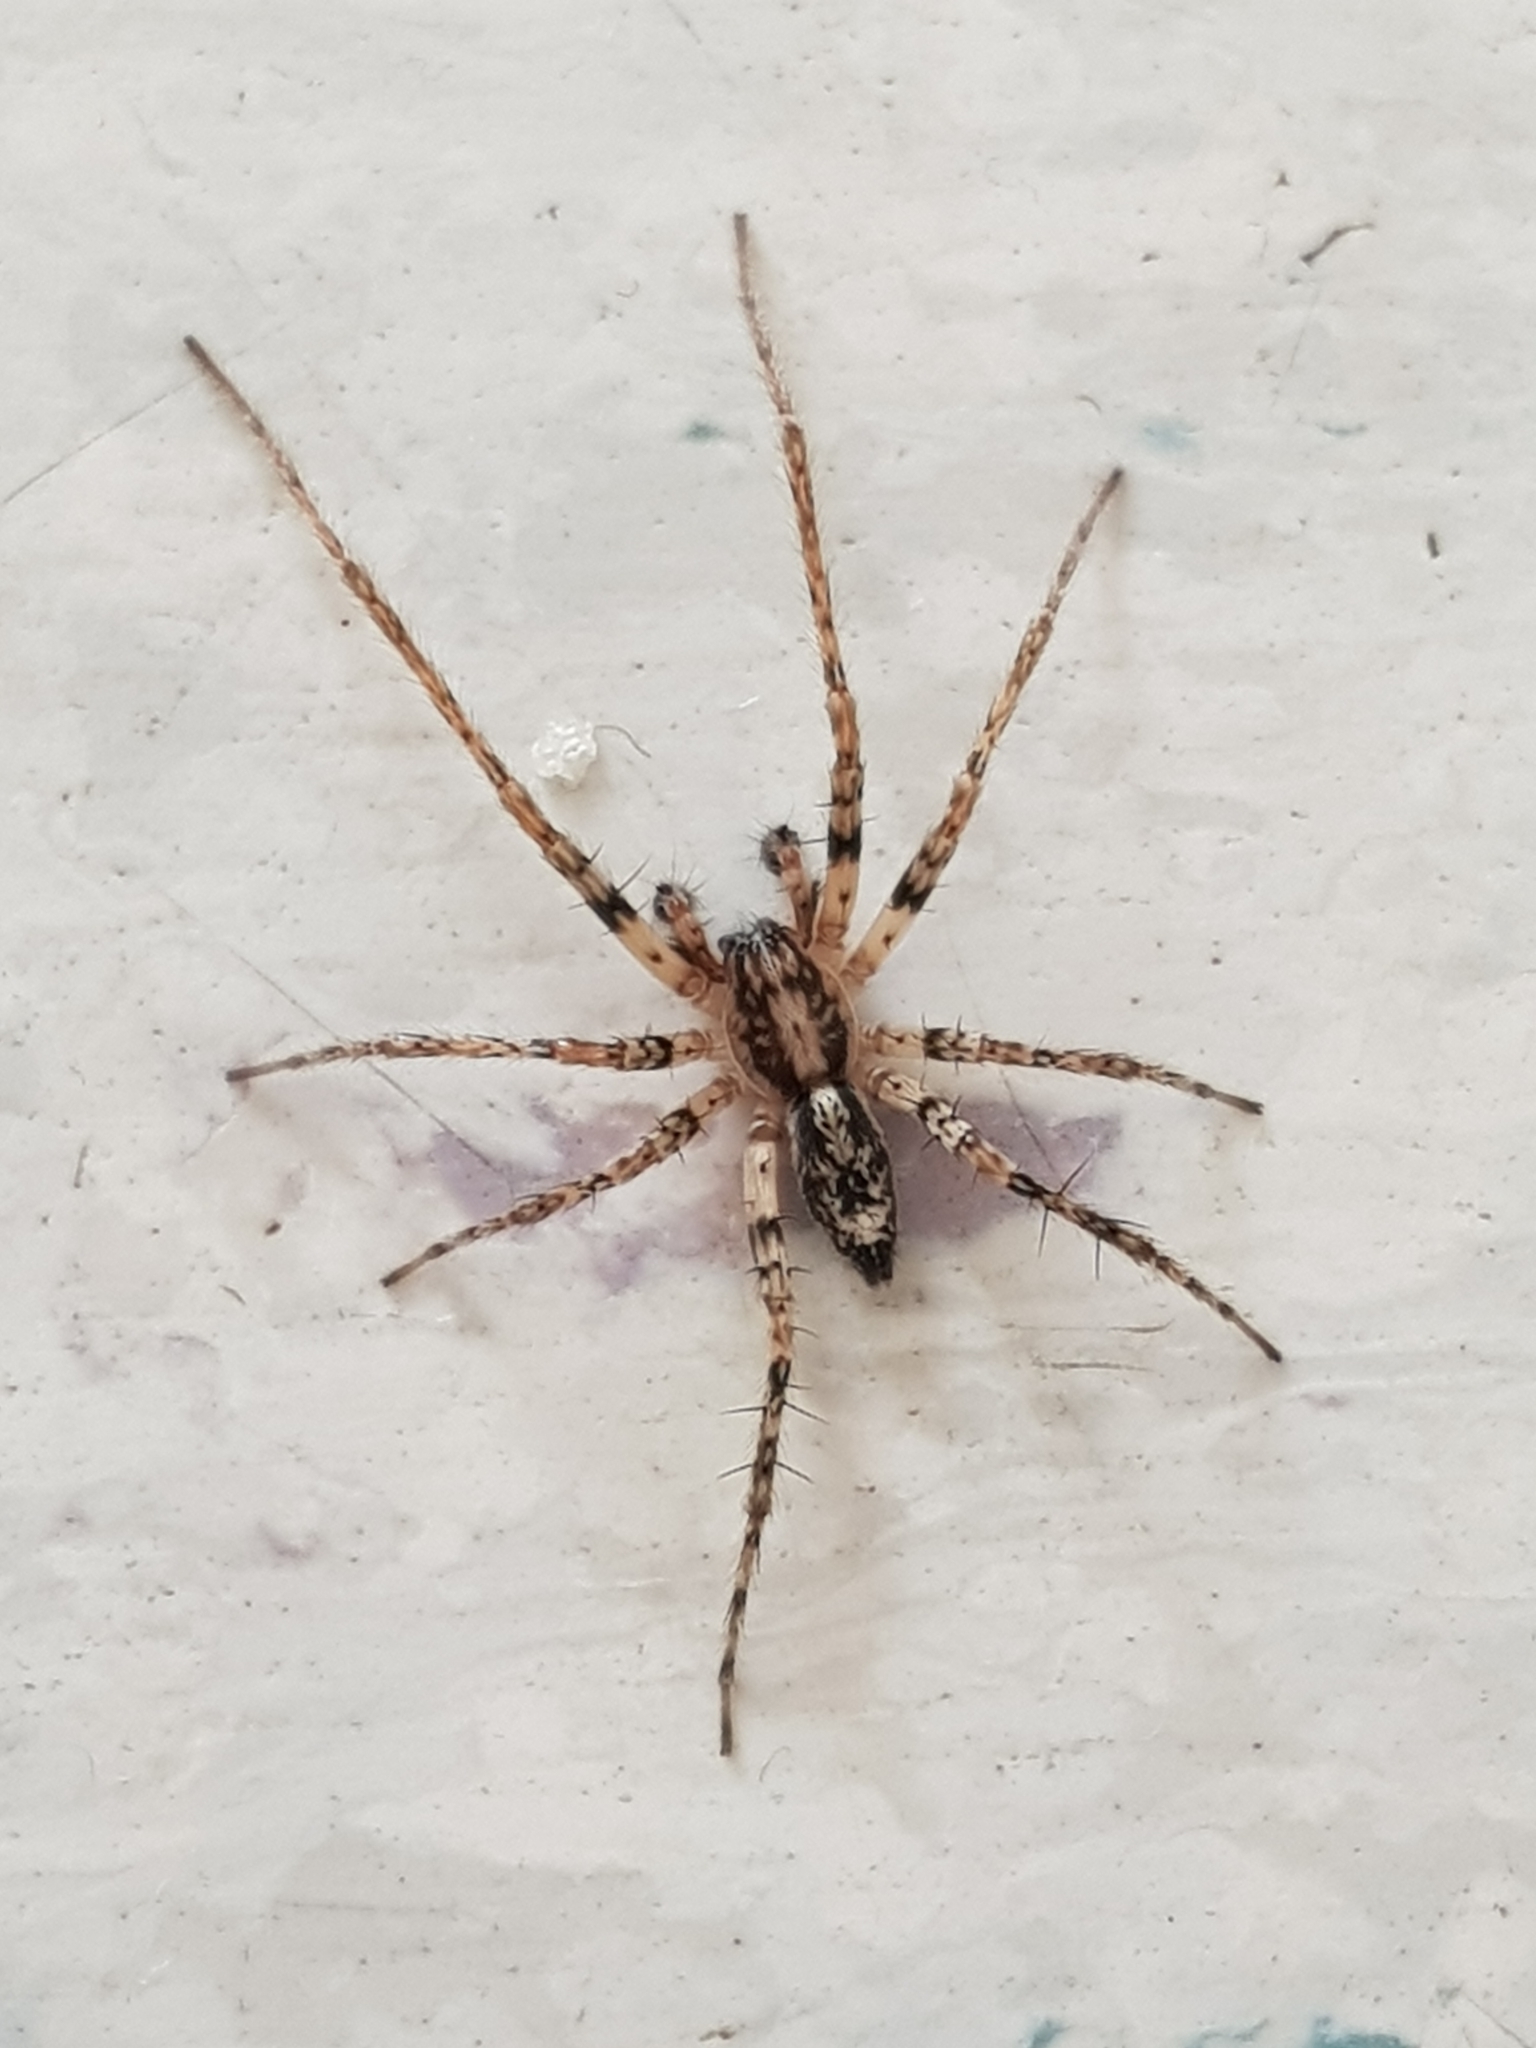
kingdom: Animalia
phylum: Arthropoda
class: Arachnida
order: Araneae
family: Anyphaenidae
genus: Anyphaena
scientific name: Anyphaena accentuata
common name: Buzzing spider
